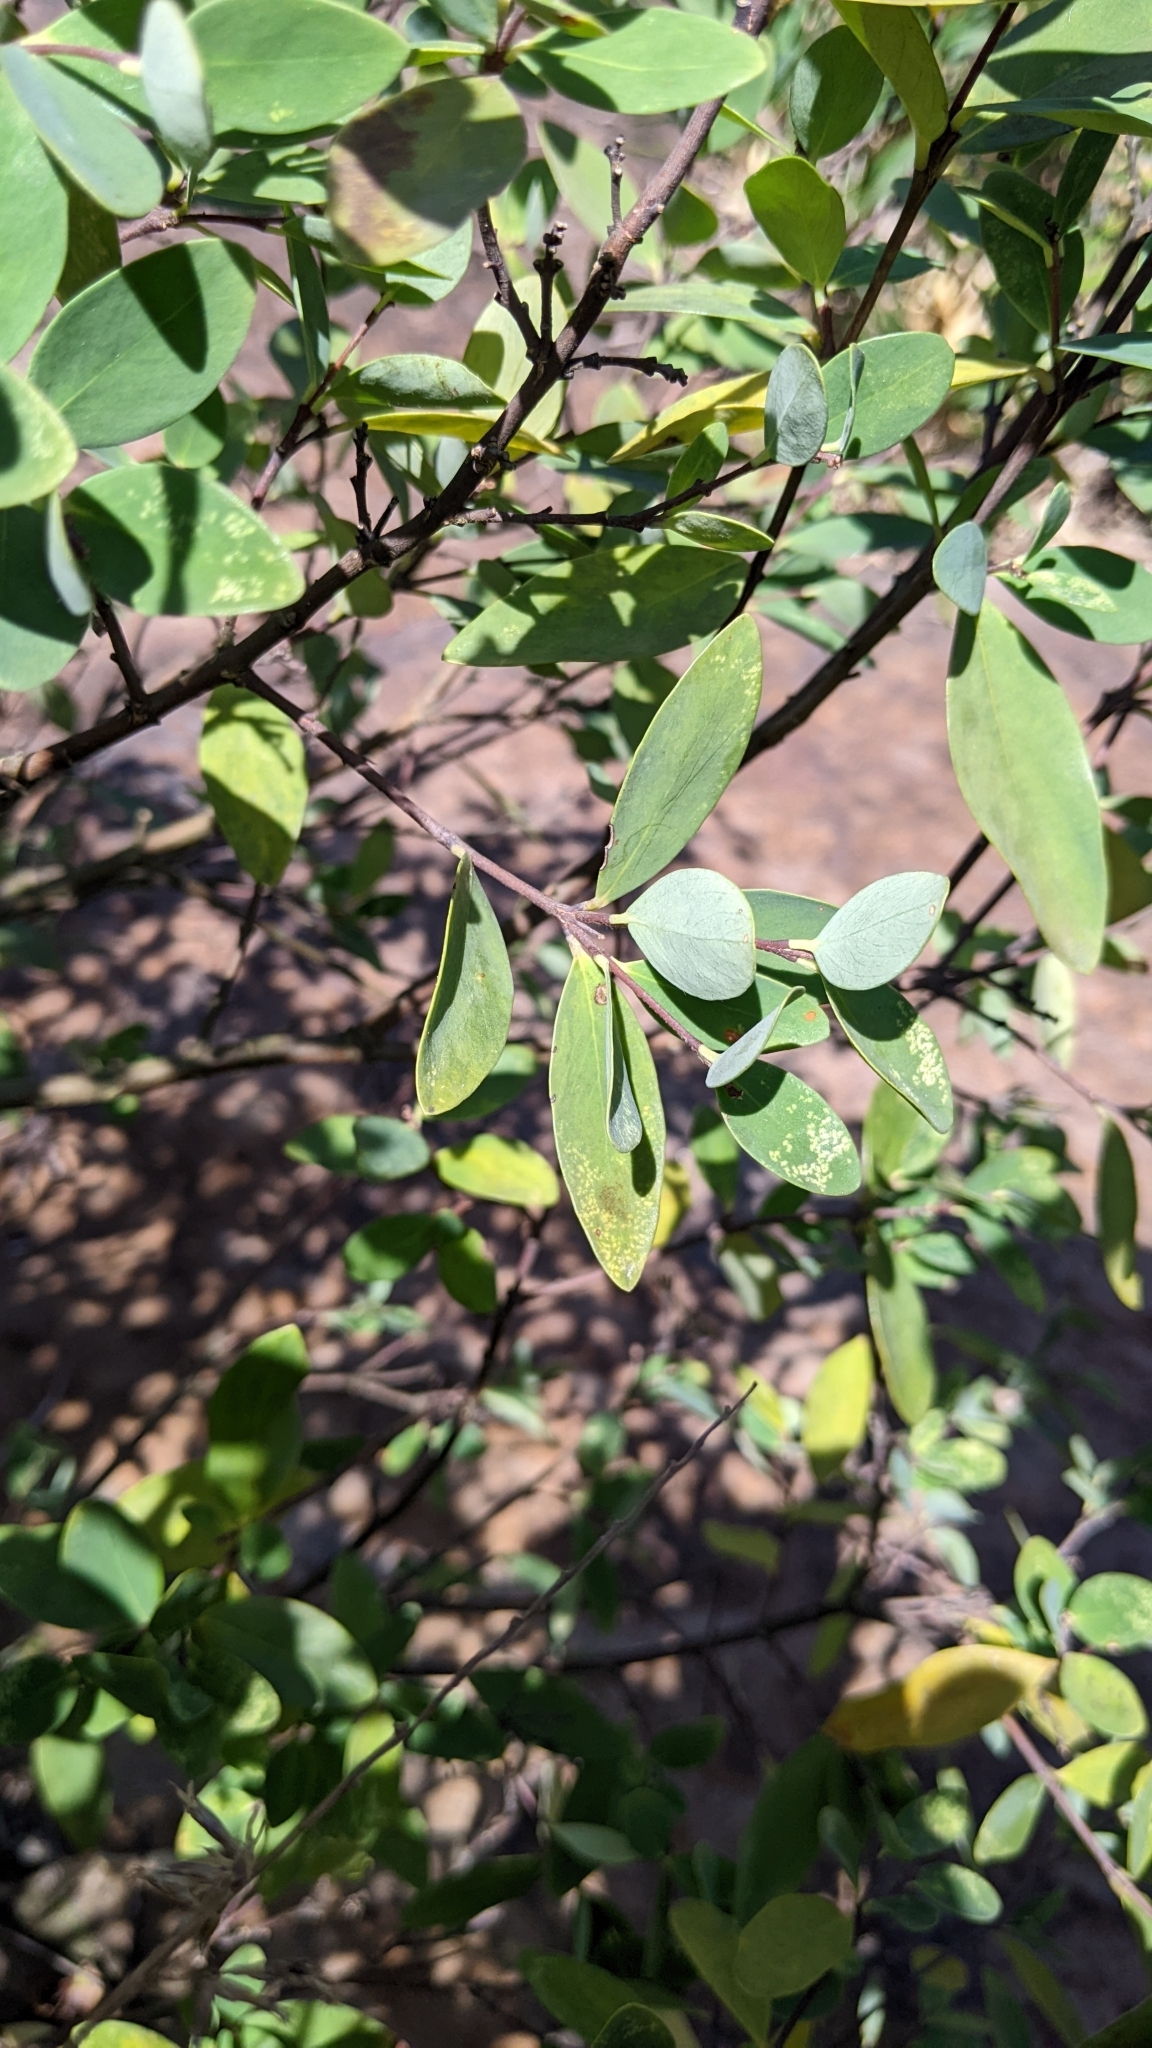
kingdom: Plantae
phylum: Tracheophyta
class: Magnoliopsida
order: Malvales
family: Thymelaeaceae
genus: Wikstroemia
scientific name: Wikstroemia indica
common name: Tiebush
